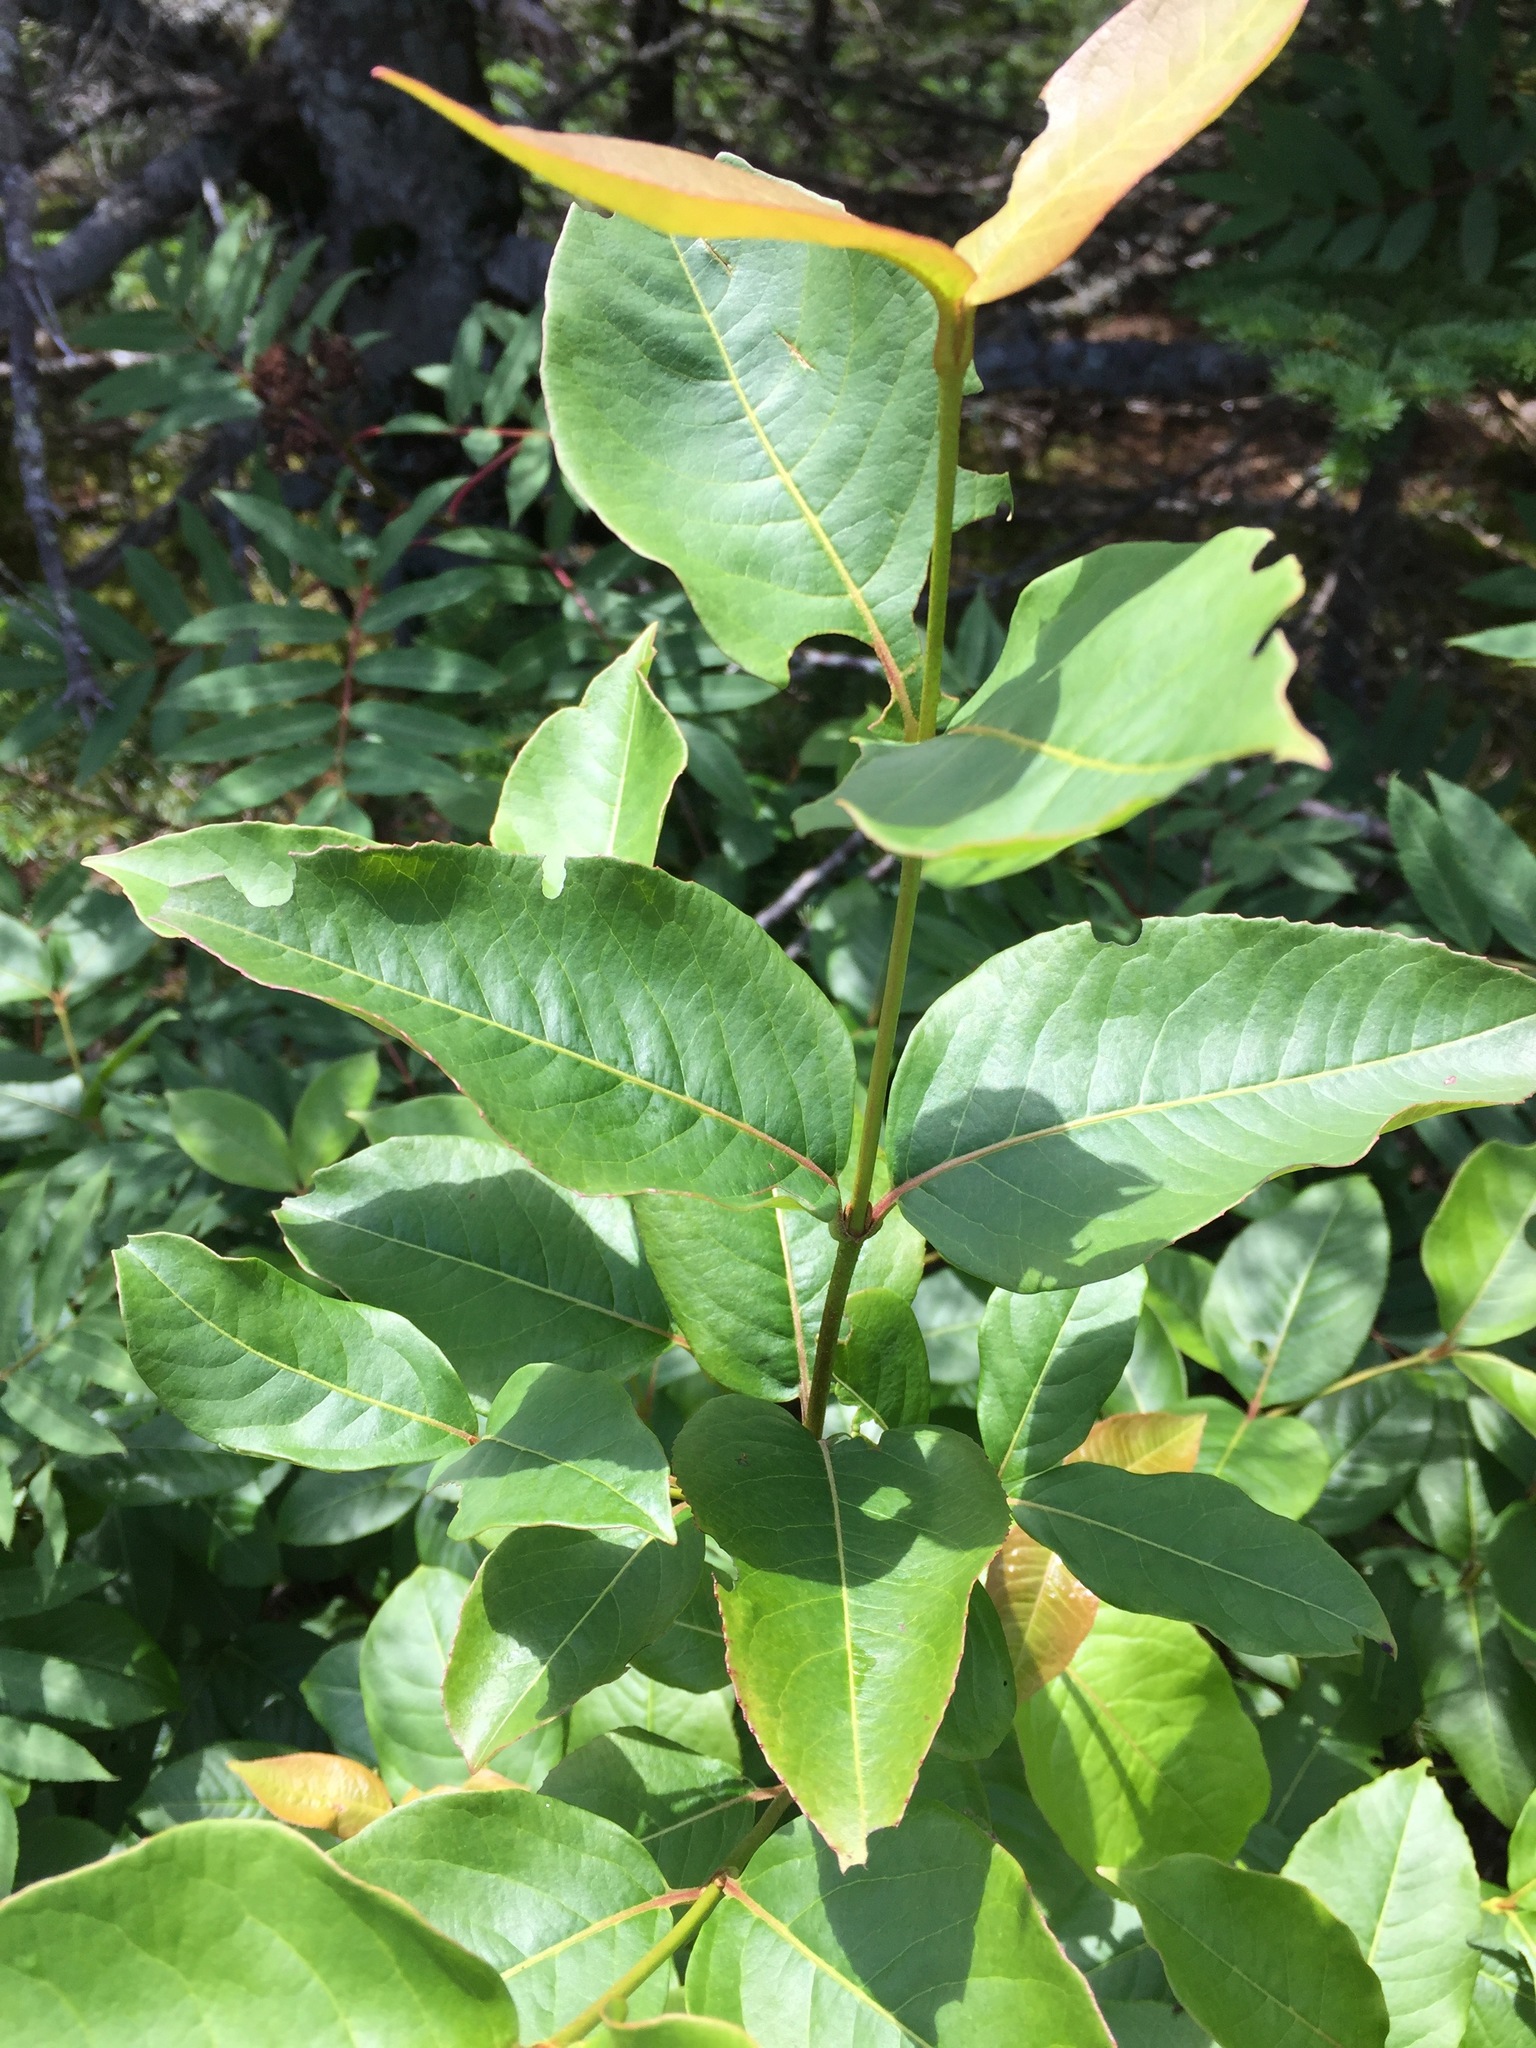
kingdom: Plantae
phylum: Tracheophyta
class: Magnoliopsida
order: Dipsacales
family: Viburnaceae
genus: Viburnum
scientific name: Viburnum cassinoides
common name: Swamp haw
